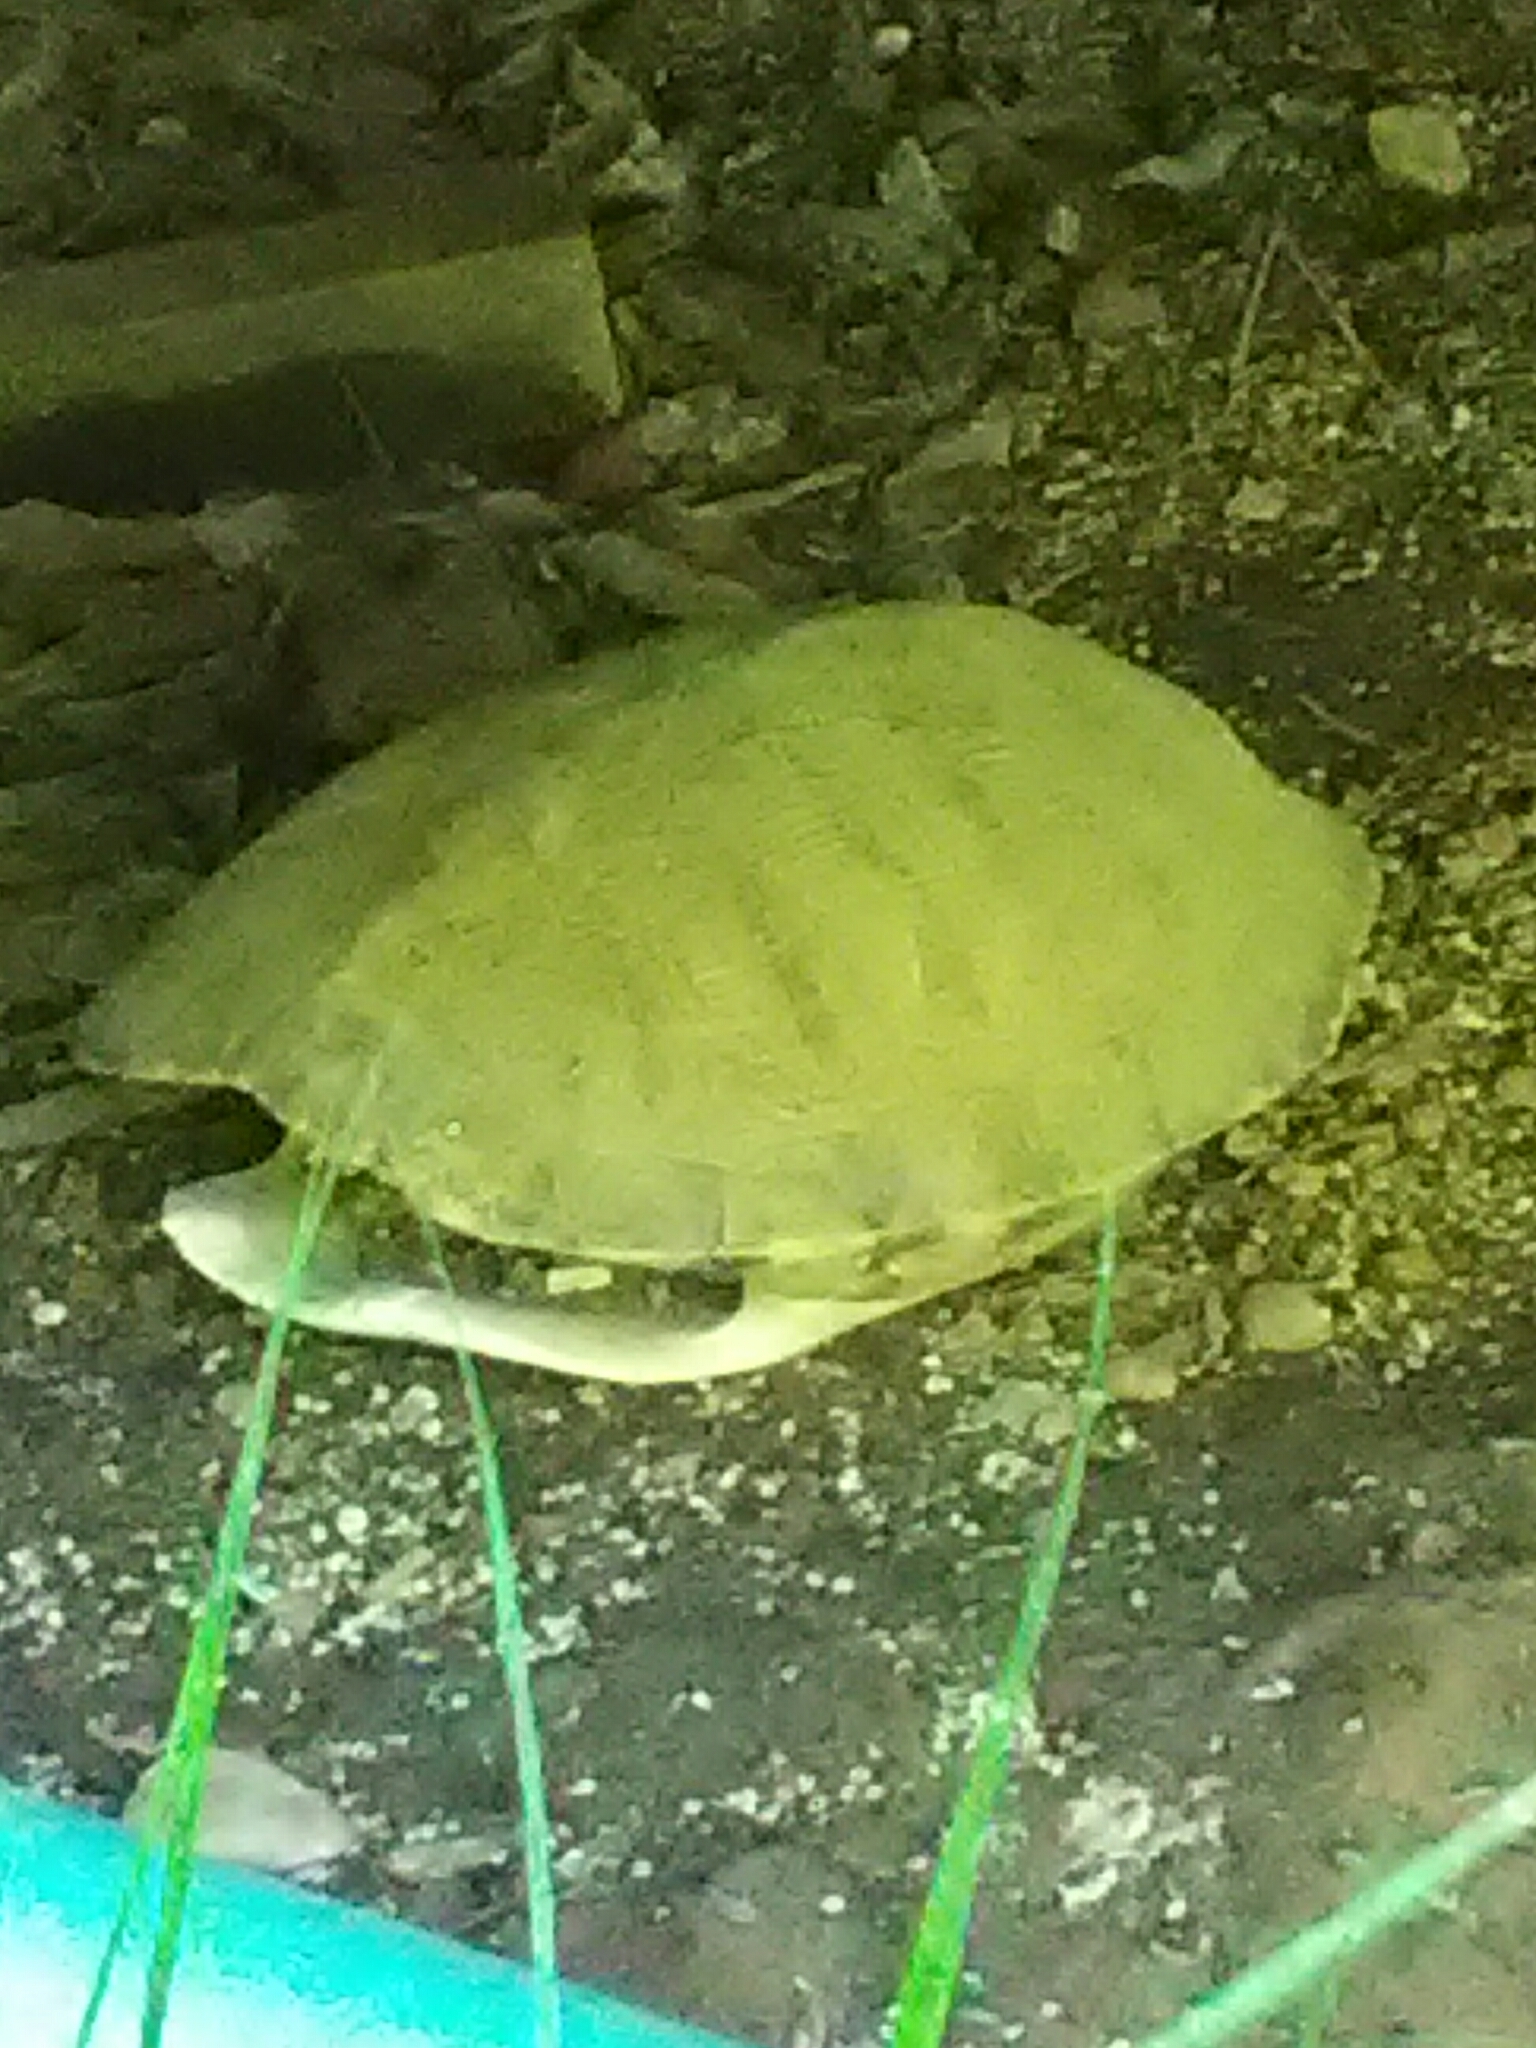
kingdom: Animalia
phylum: Chordata
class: Testudines
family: Emydidae
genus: Trachemys
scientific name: Trachemys scripta
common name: Slider
